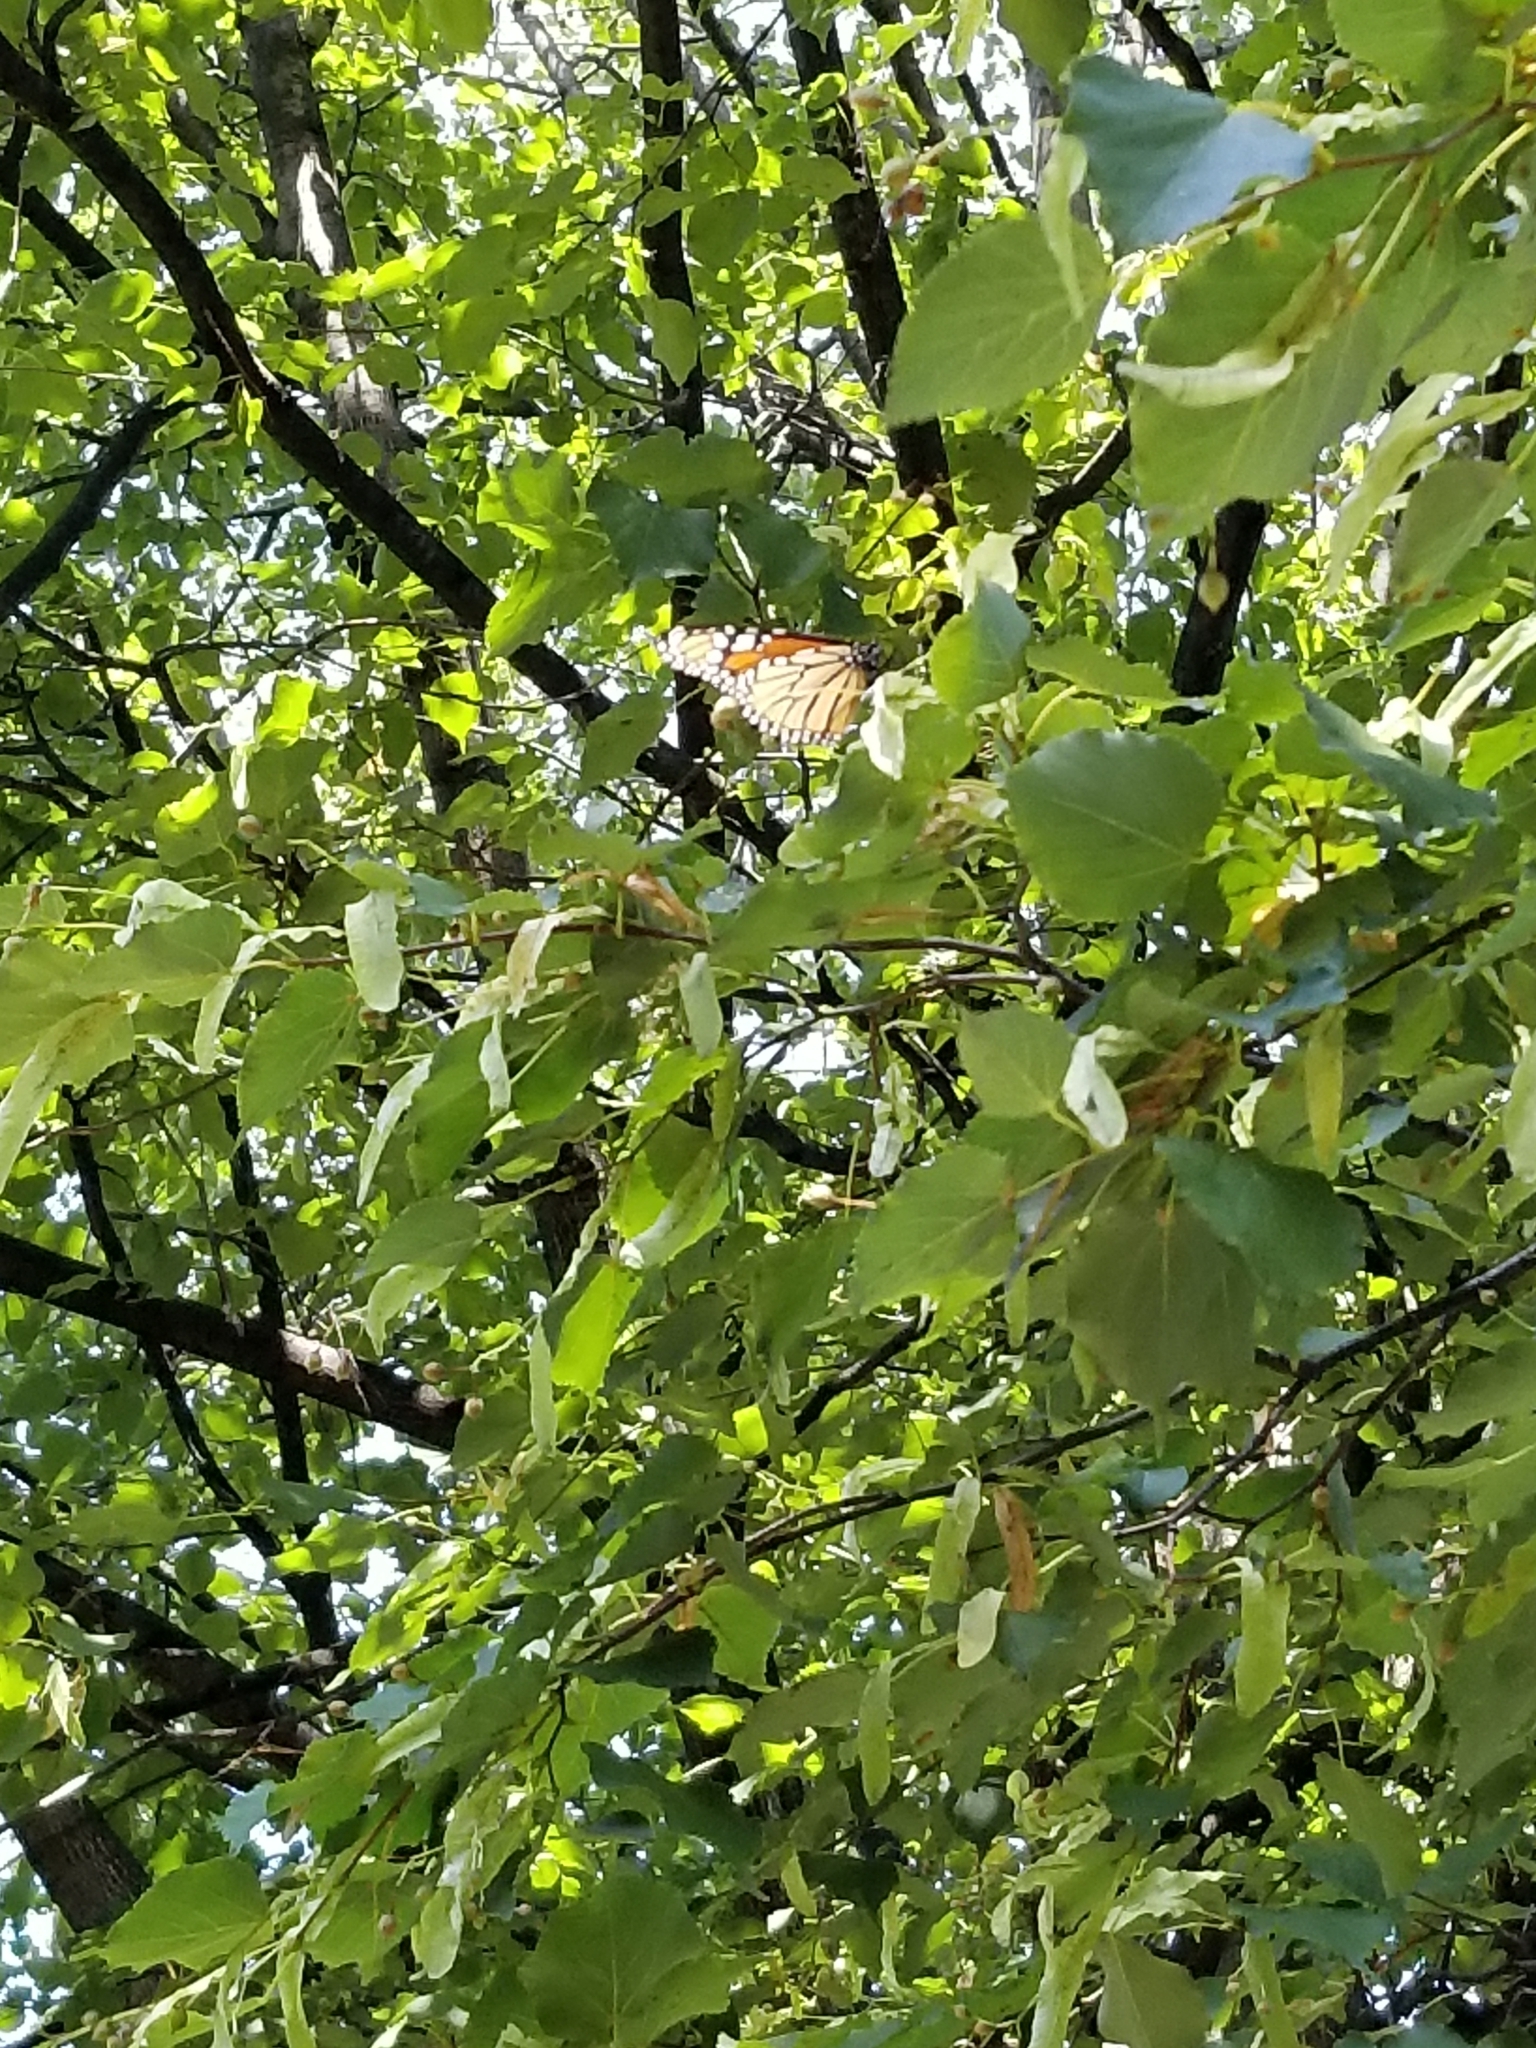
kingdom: Animalia
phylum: Arthropoda
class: Insecta
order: Lepidoptera
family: Nymphalidae
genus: Danaus
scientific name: Danaus plexippus
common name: Monarch
